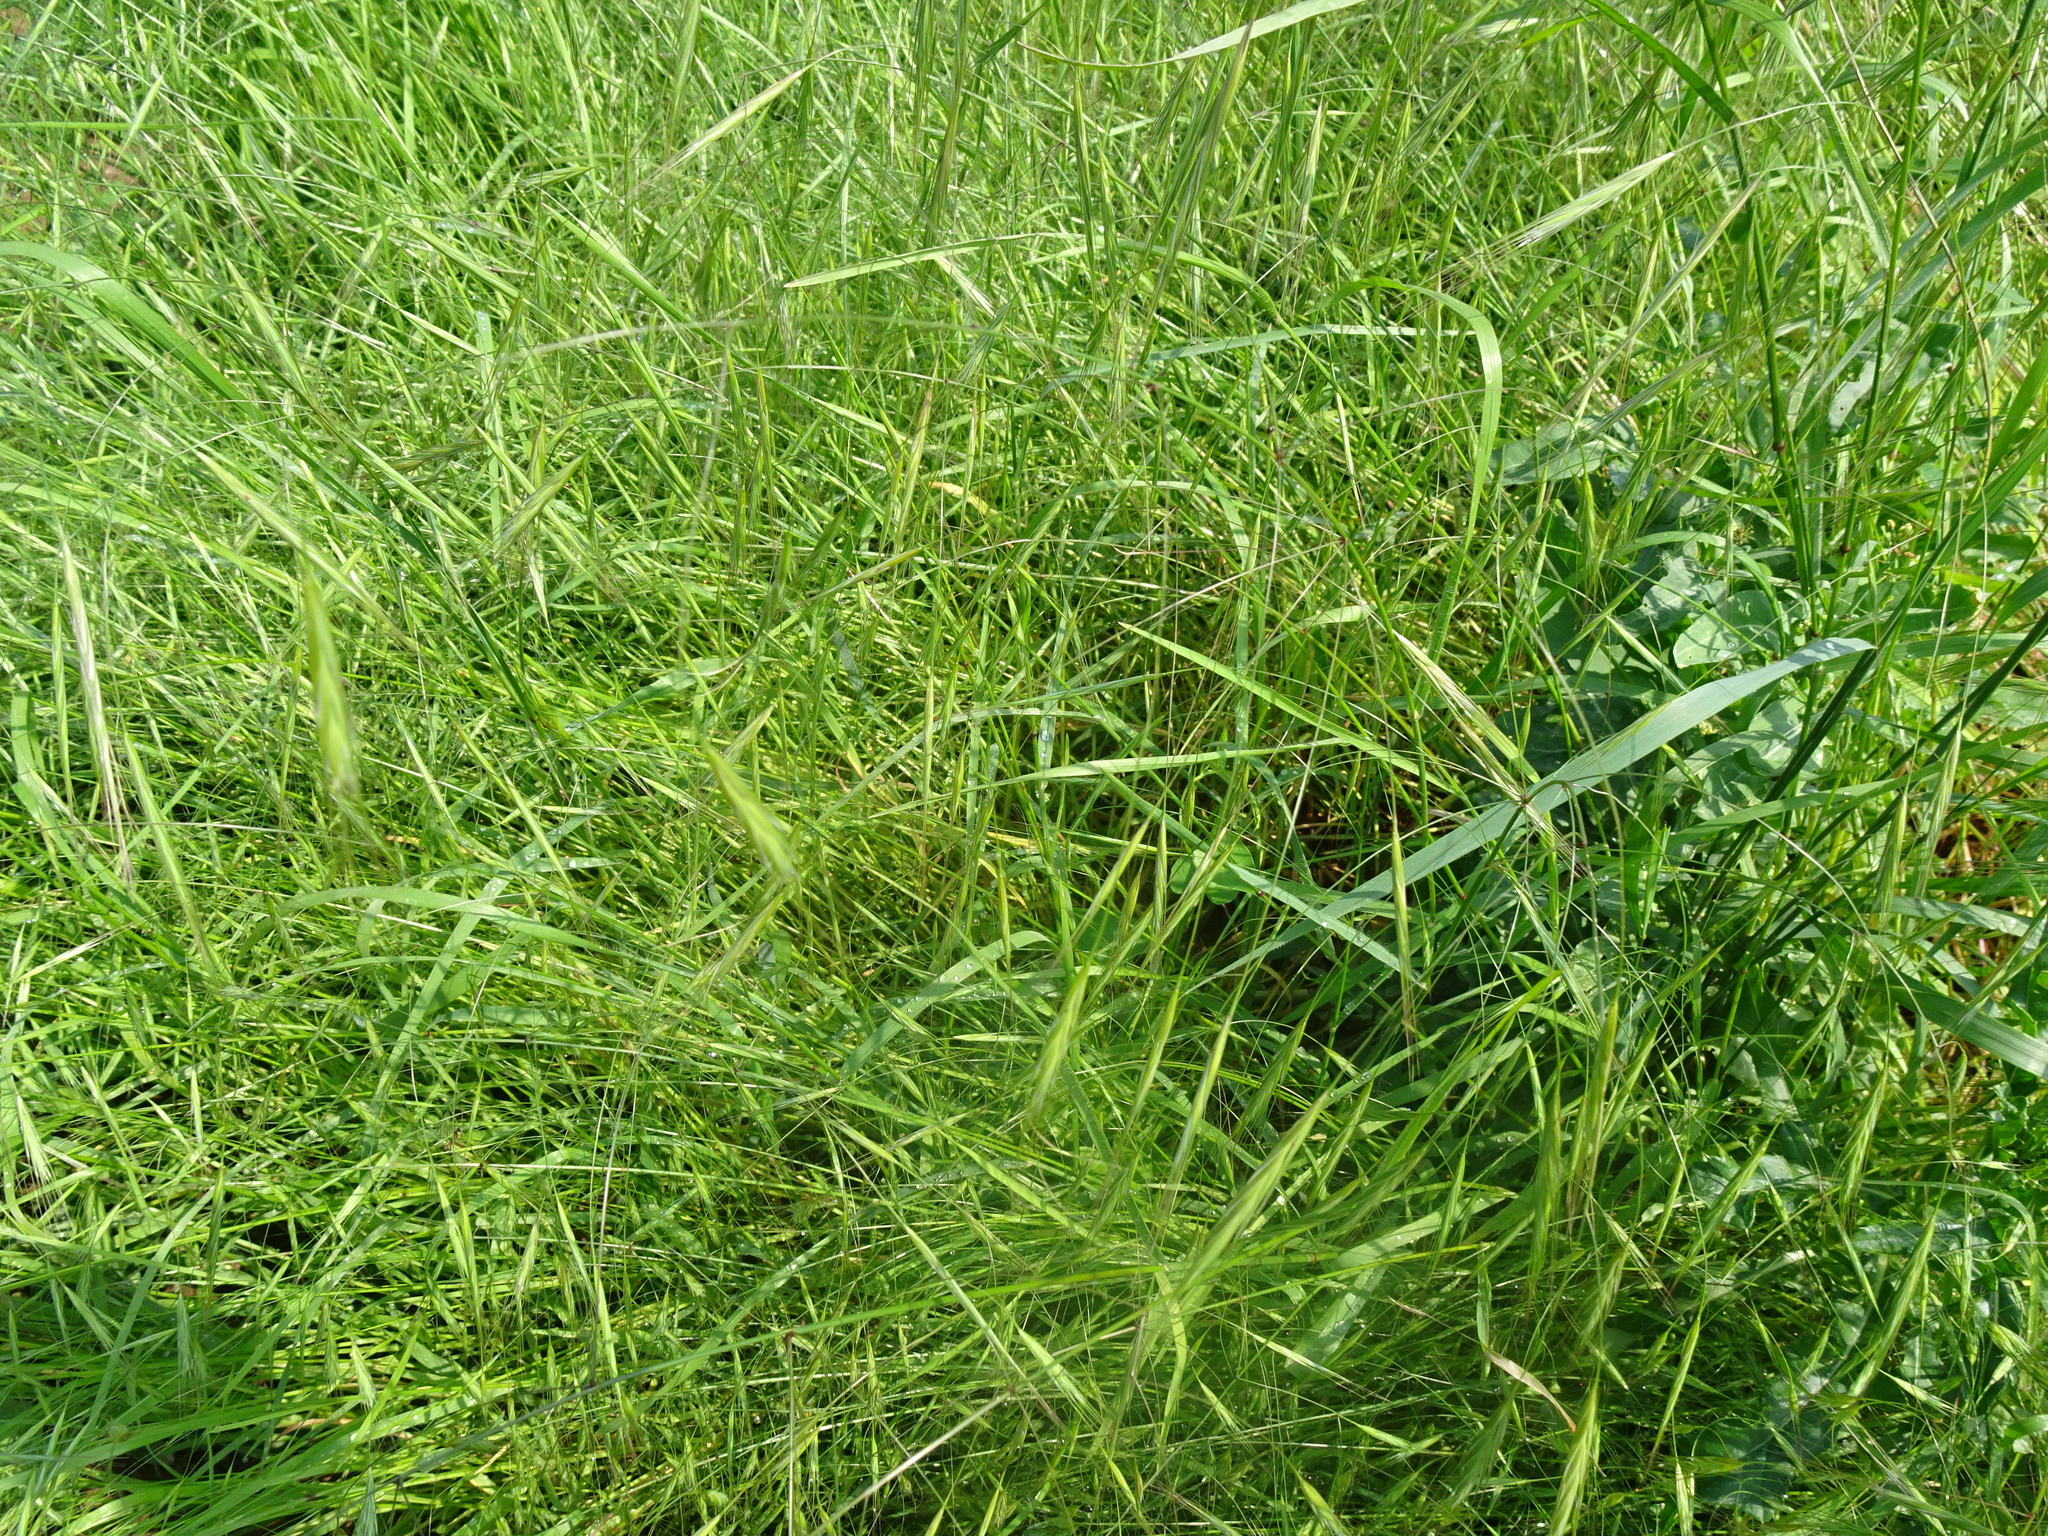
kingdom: Plantae
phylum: Tracheophyta
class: Liliopsida
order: Poales
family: Poaceae
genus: Bromus
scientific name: Bromus sterilis
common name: Poverty brome
